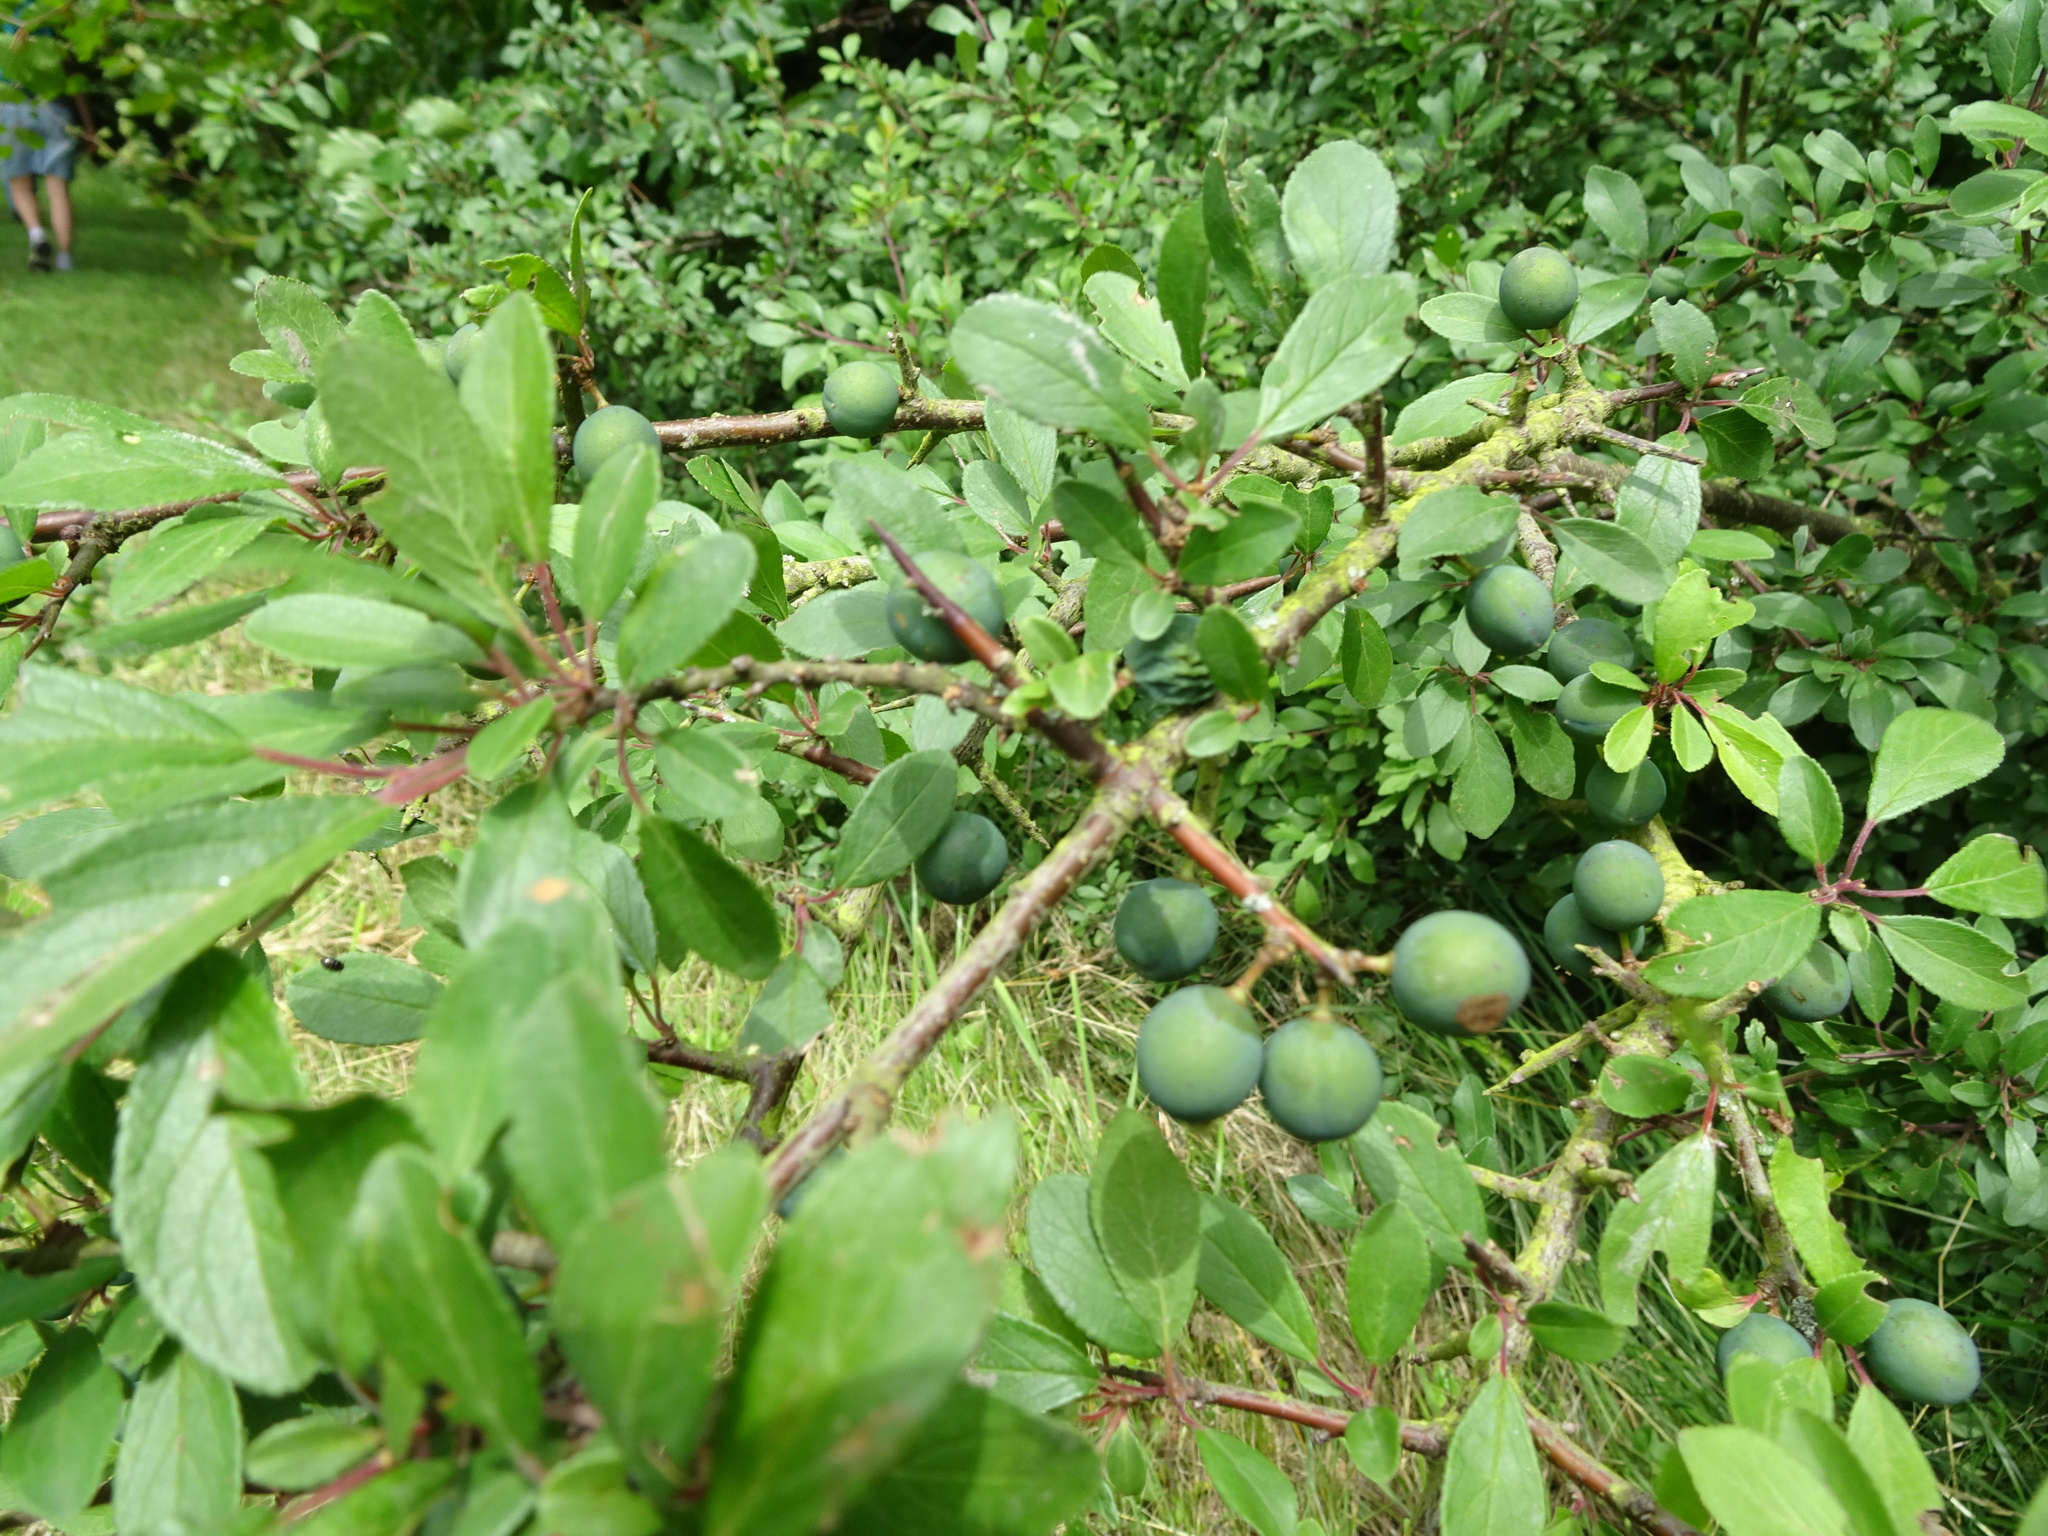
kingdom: Plantae
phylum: Tracheophyta
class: Magnoliopsida
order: Rosales
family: Rosaceae
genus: Prunus
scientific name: Prunus spinosa
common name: Blackthorn
